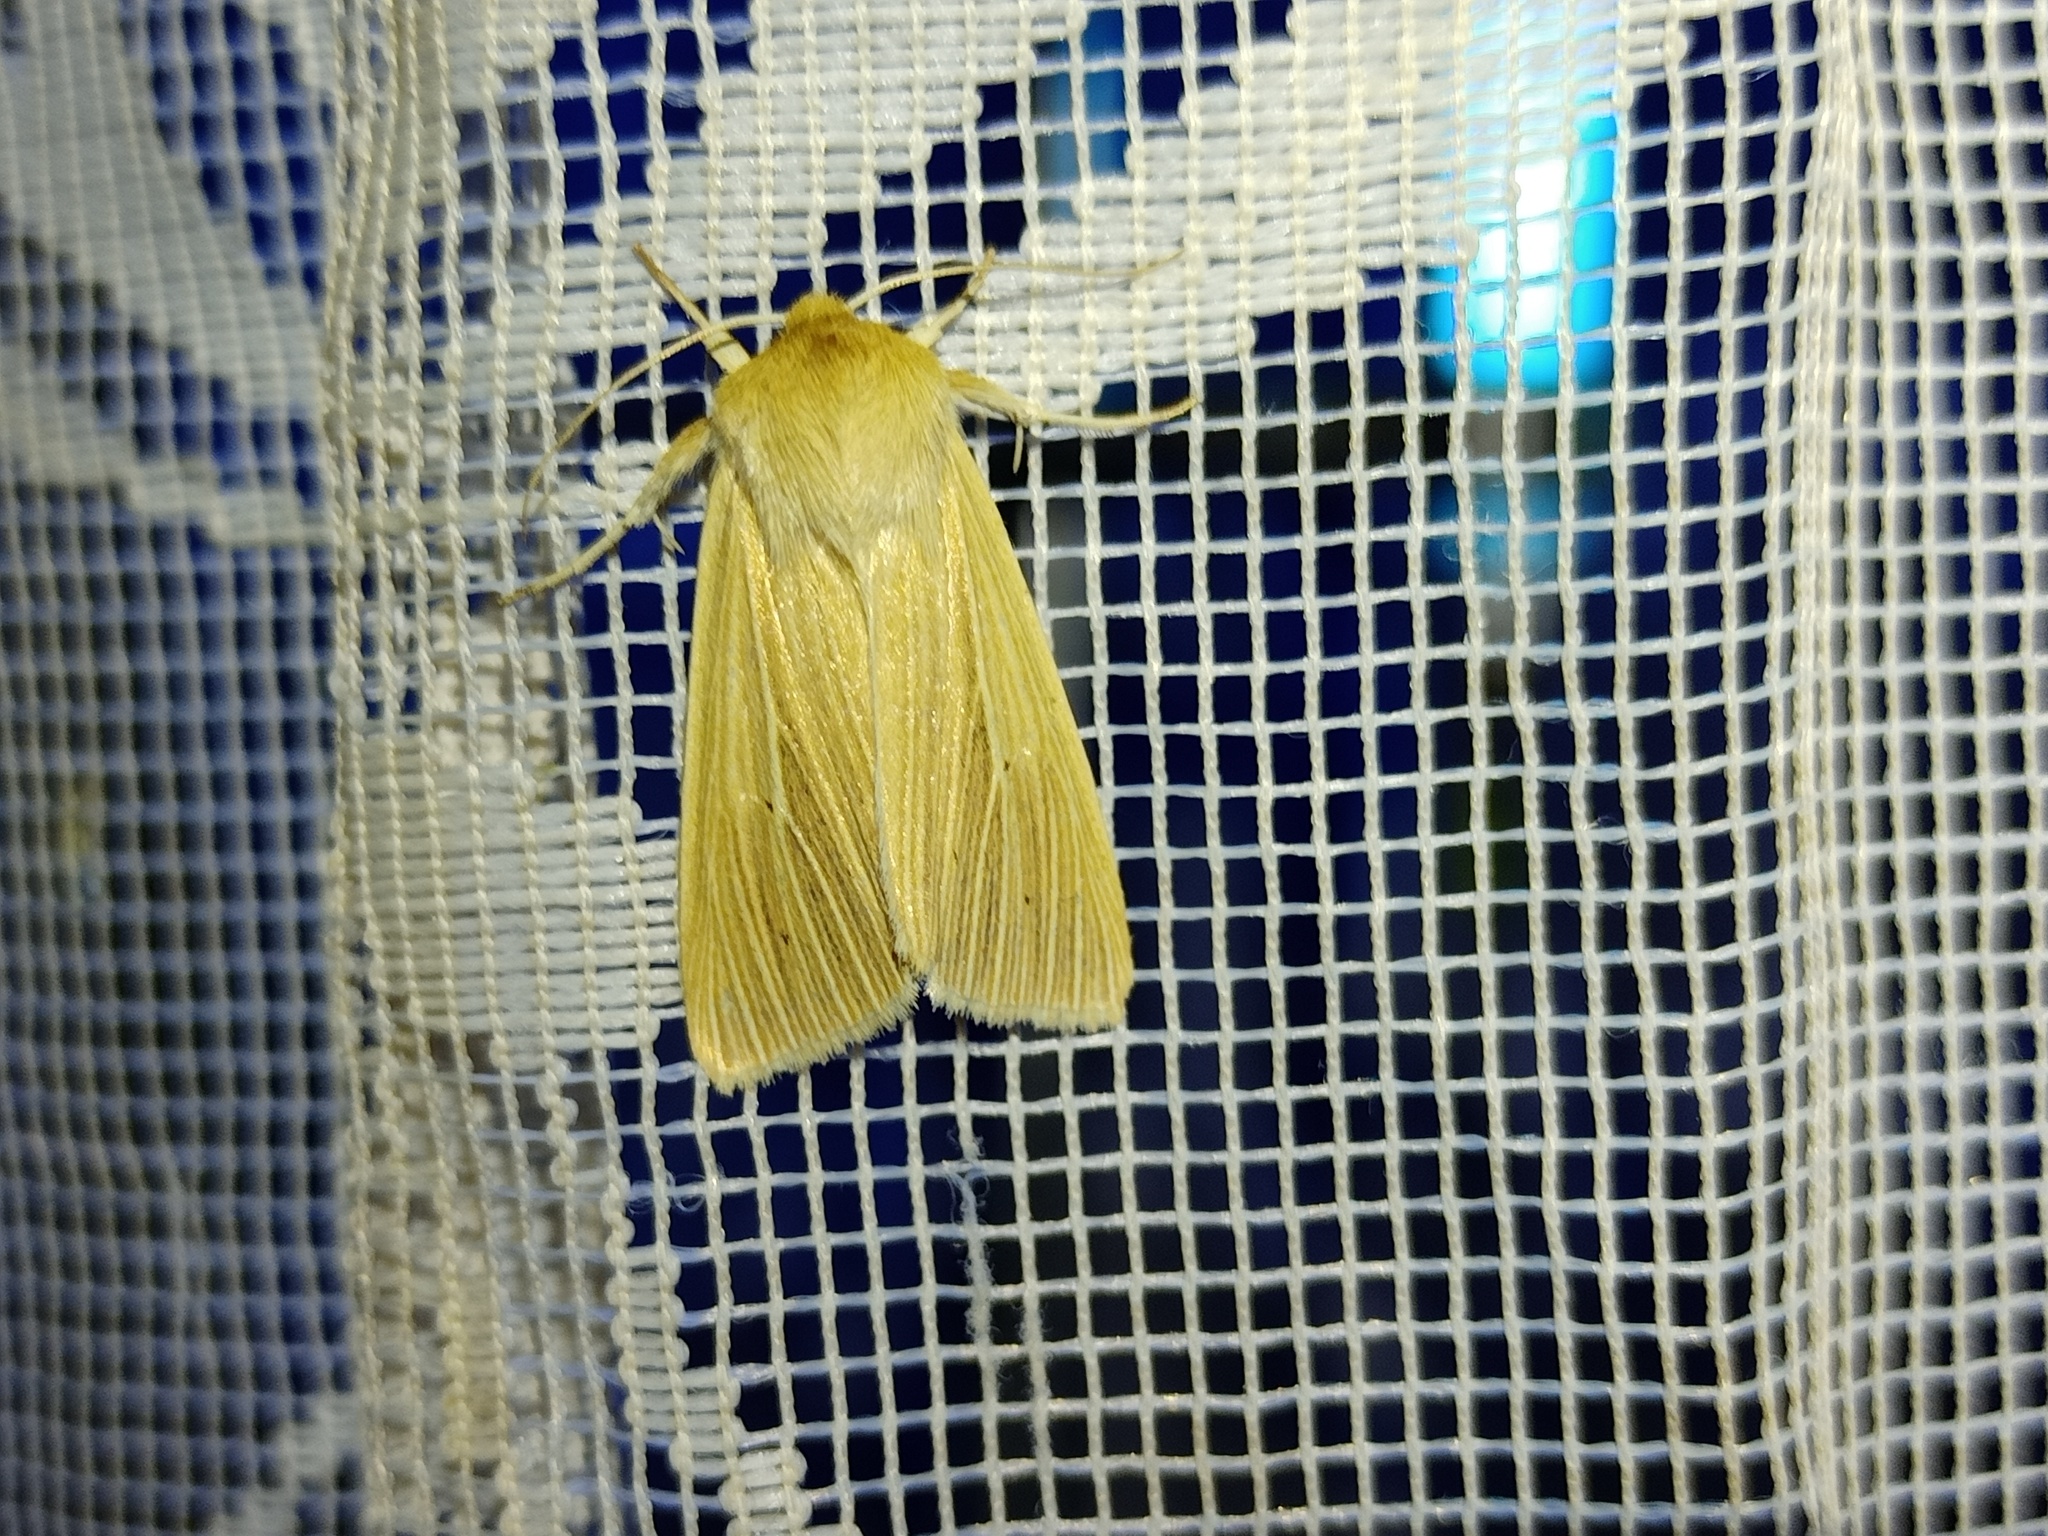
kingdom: Animalia
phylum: Arthropoda
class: Insecta
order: Lepidoptera
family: Noctuidae
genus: Mythimna
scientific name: Mythimna pallens
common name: Common wainscot
